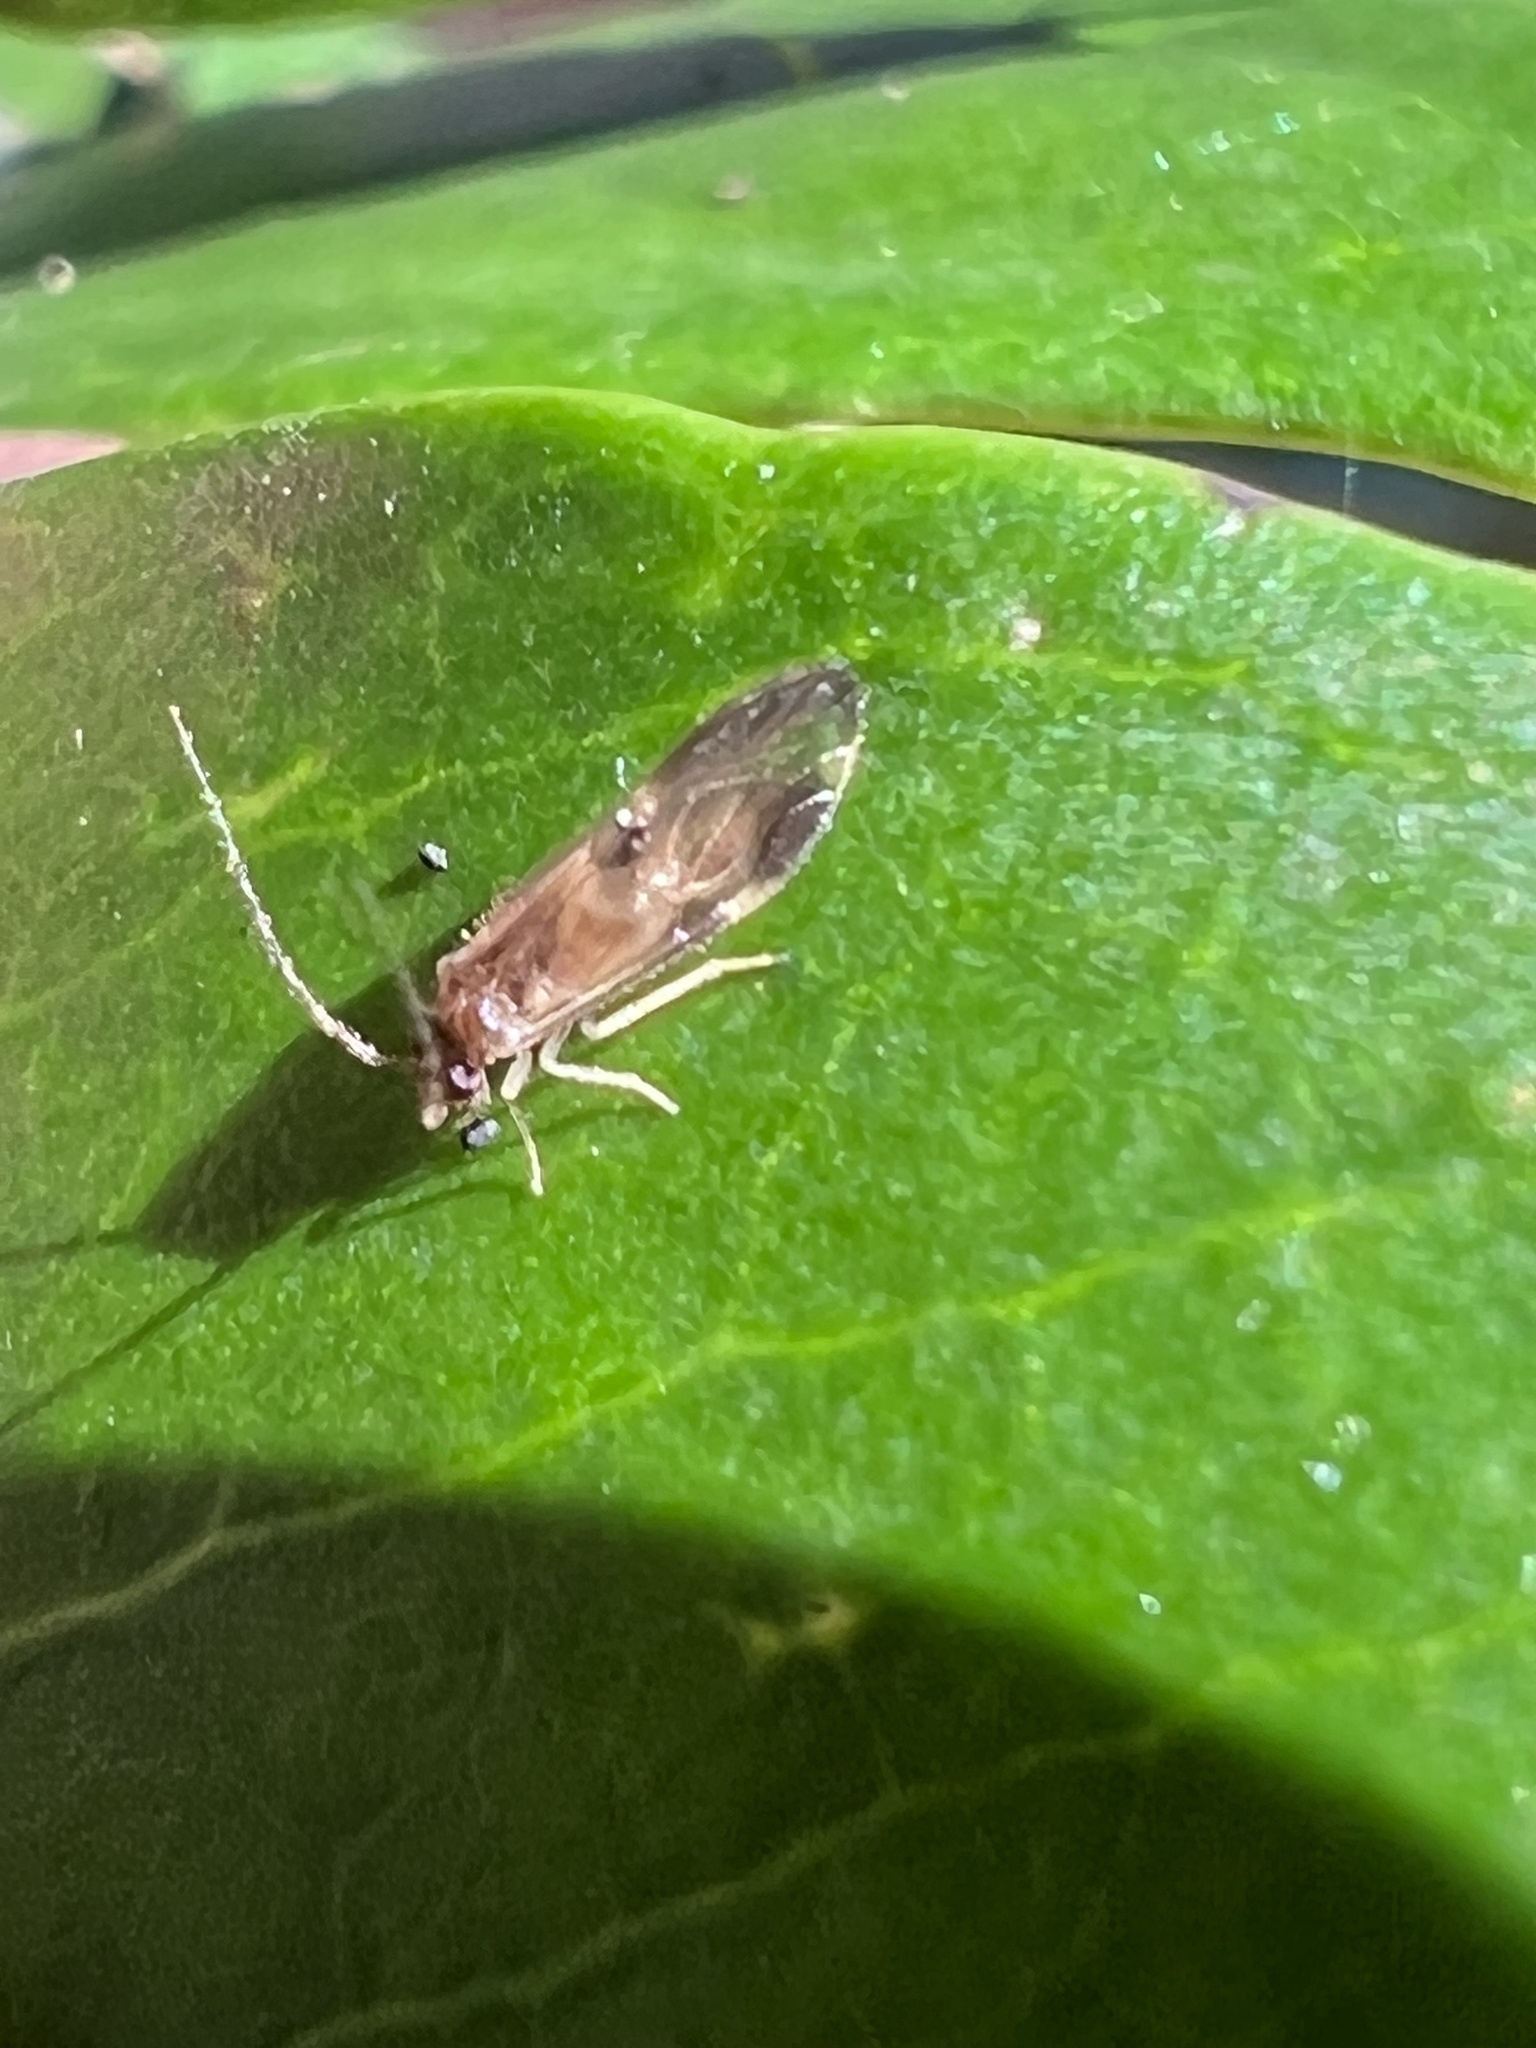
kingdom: Animalia
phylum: Arthropoda
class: Insecta
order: Psocodea
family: Amphipsocidae
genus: Polypsocus
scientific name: Polypsocus corruptus
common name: Corrupt barklouse
